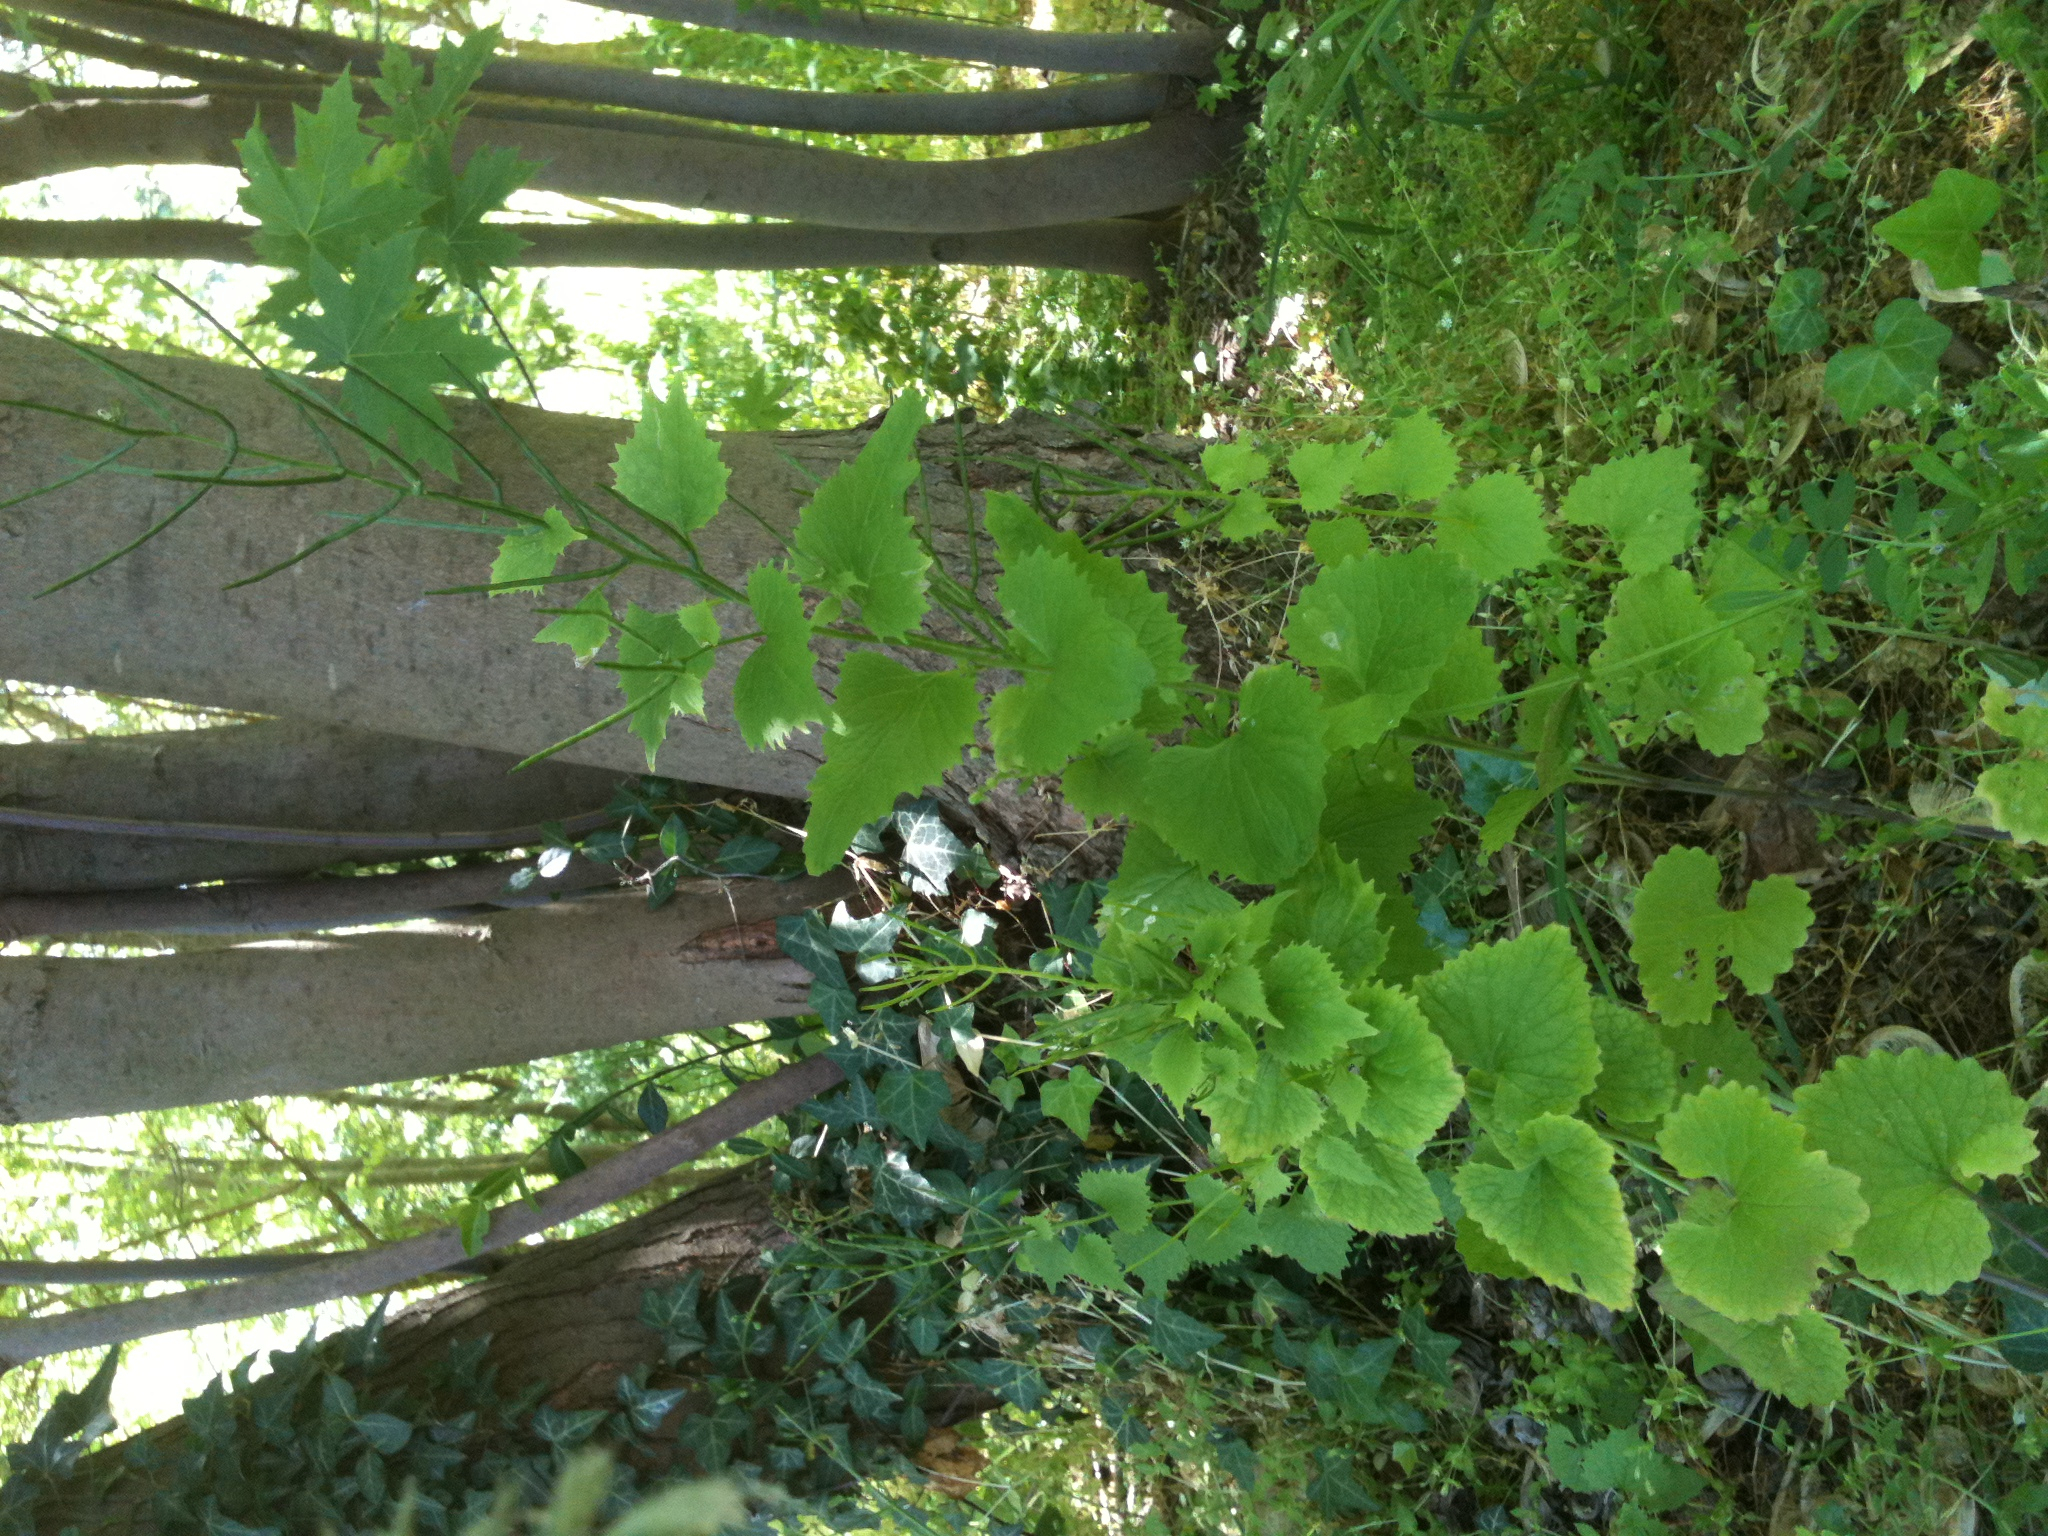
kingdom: Plantae
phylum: Tracheophyta
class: Magnoliopsida
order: Brassicales
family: Brassicaceae
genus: Alliaria
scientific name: Alliaria petiolata
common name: Garlic mustard
